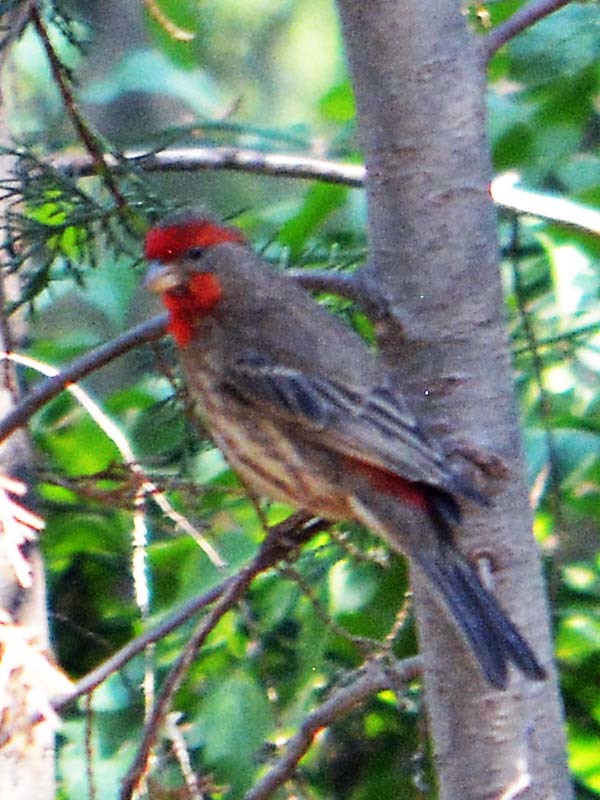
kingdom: Animalia
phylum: Chordata
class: Aves
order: Passeriformes
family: Fringillidae
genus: Haemorhous
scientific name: Haemorhous mexicanus
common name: House finch
